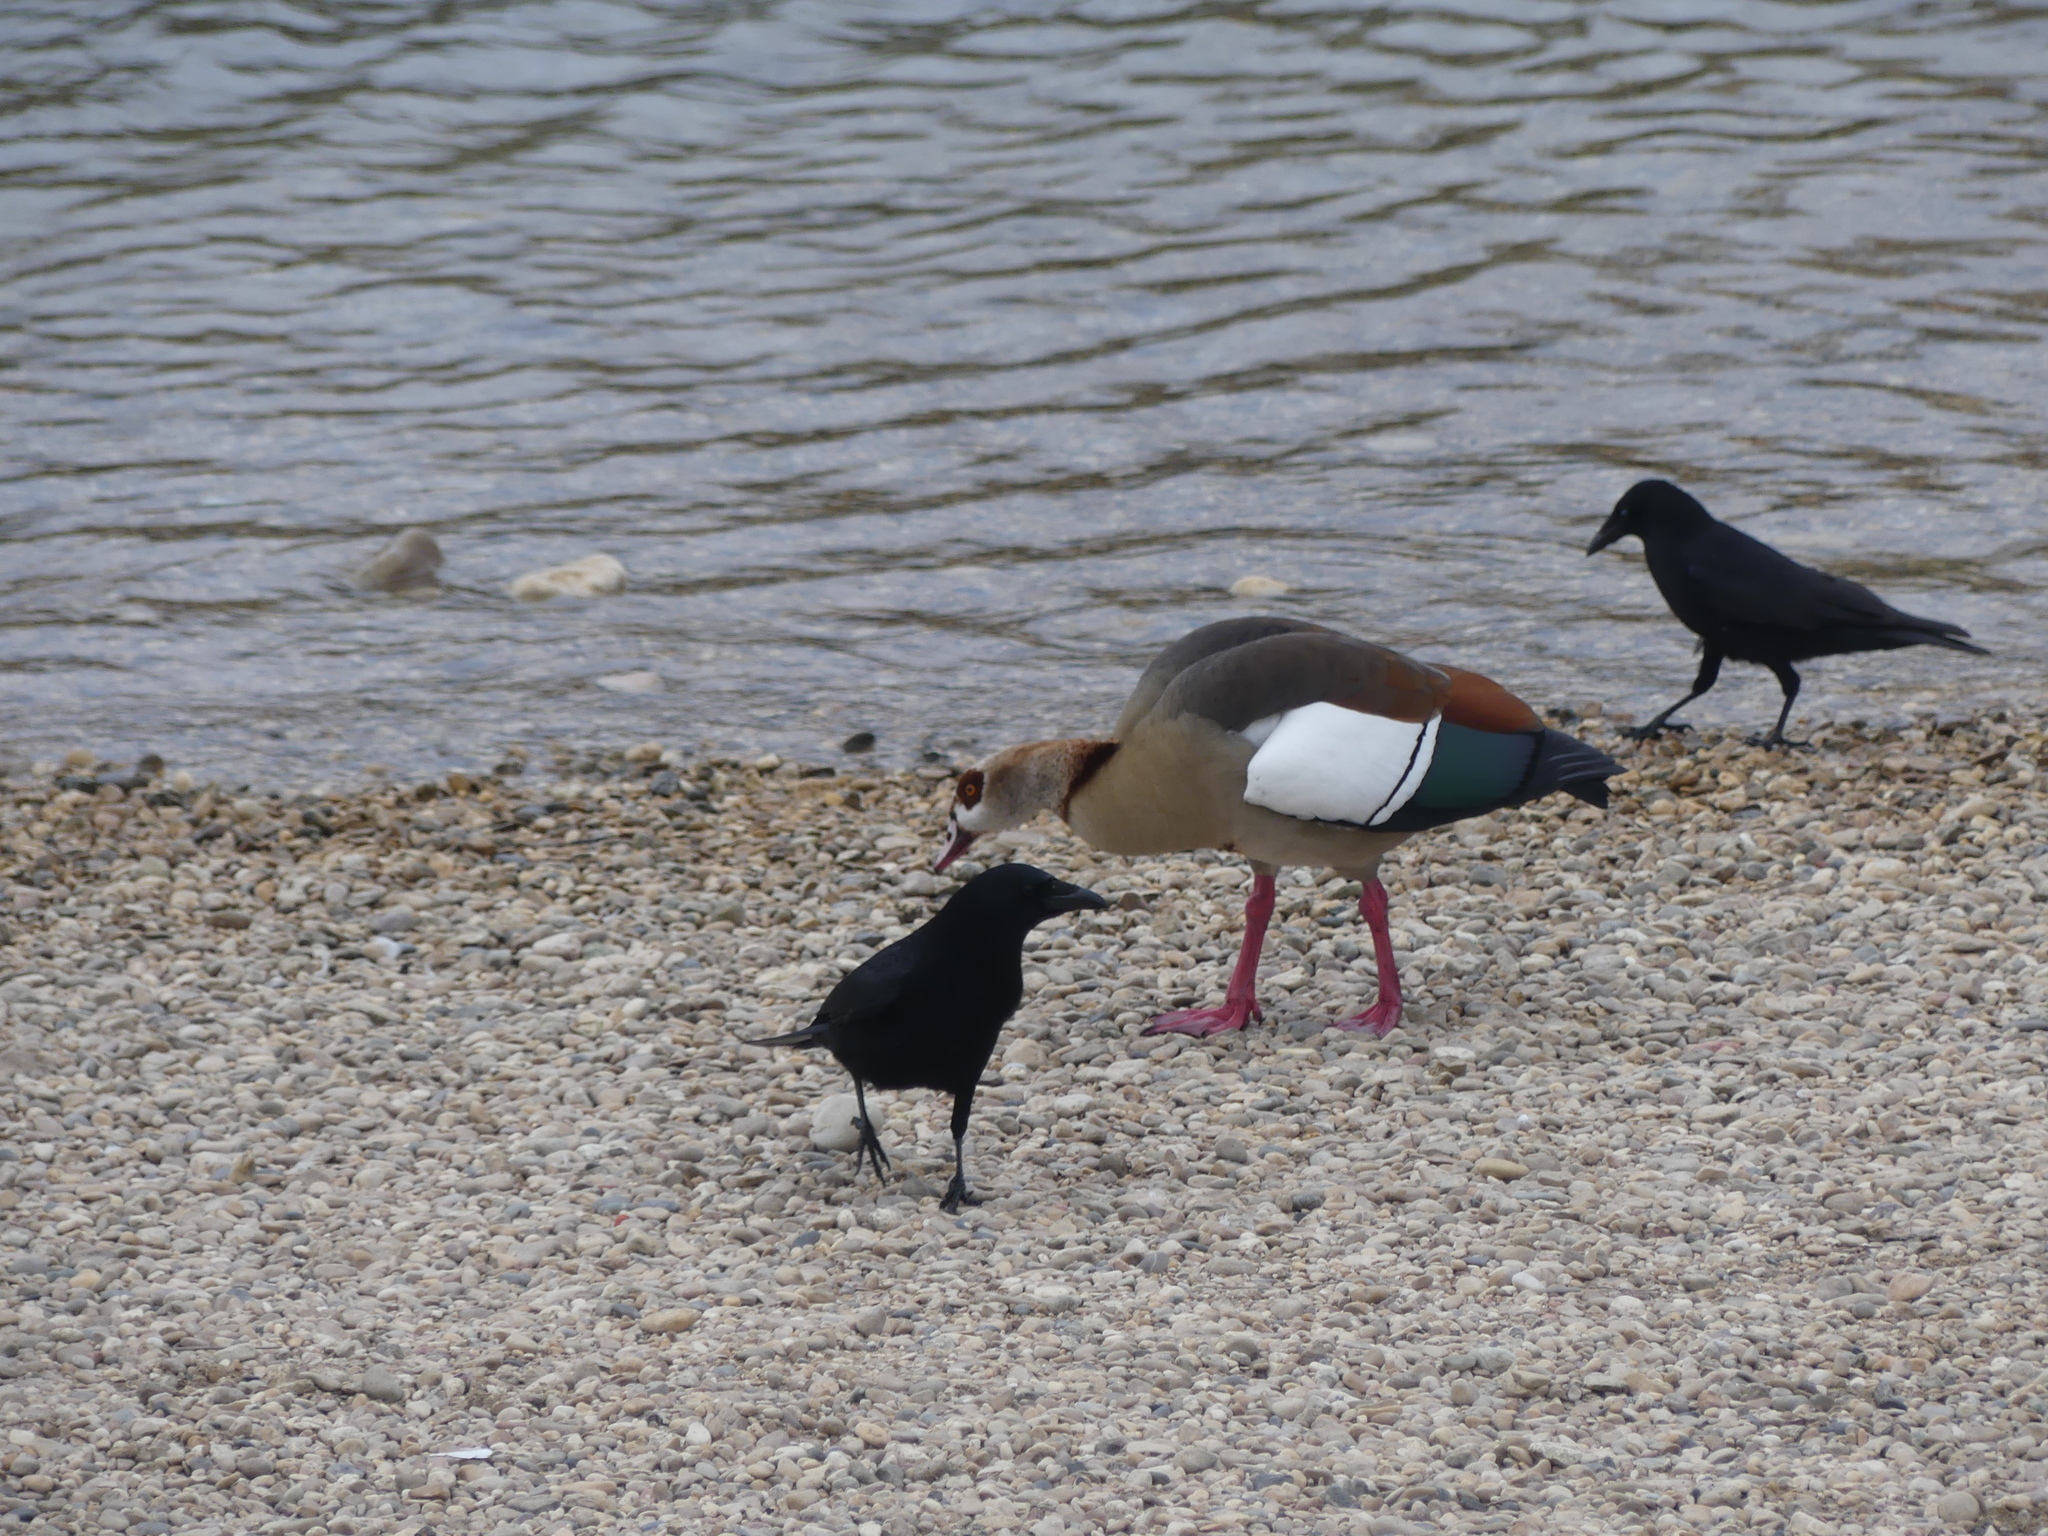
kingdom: Animalia
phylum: Chordata
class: Aves
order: Anseriformes
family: Anatidae
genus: Alopochen
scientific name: Alopochen aegyptiaca
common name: Egyptian goose
